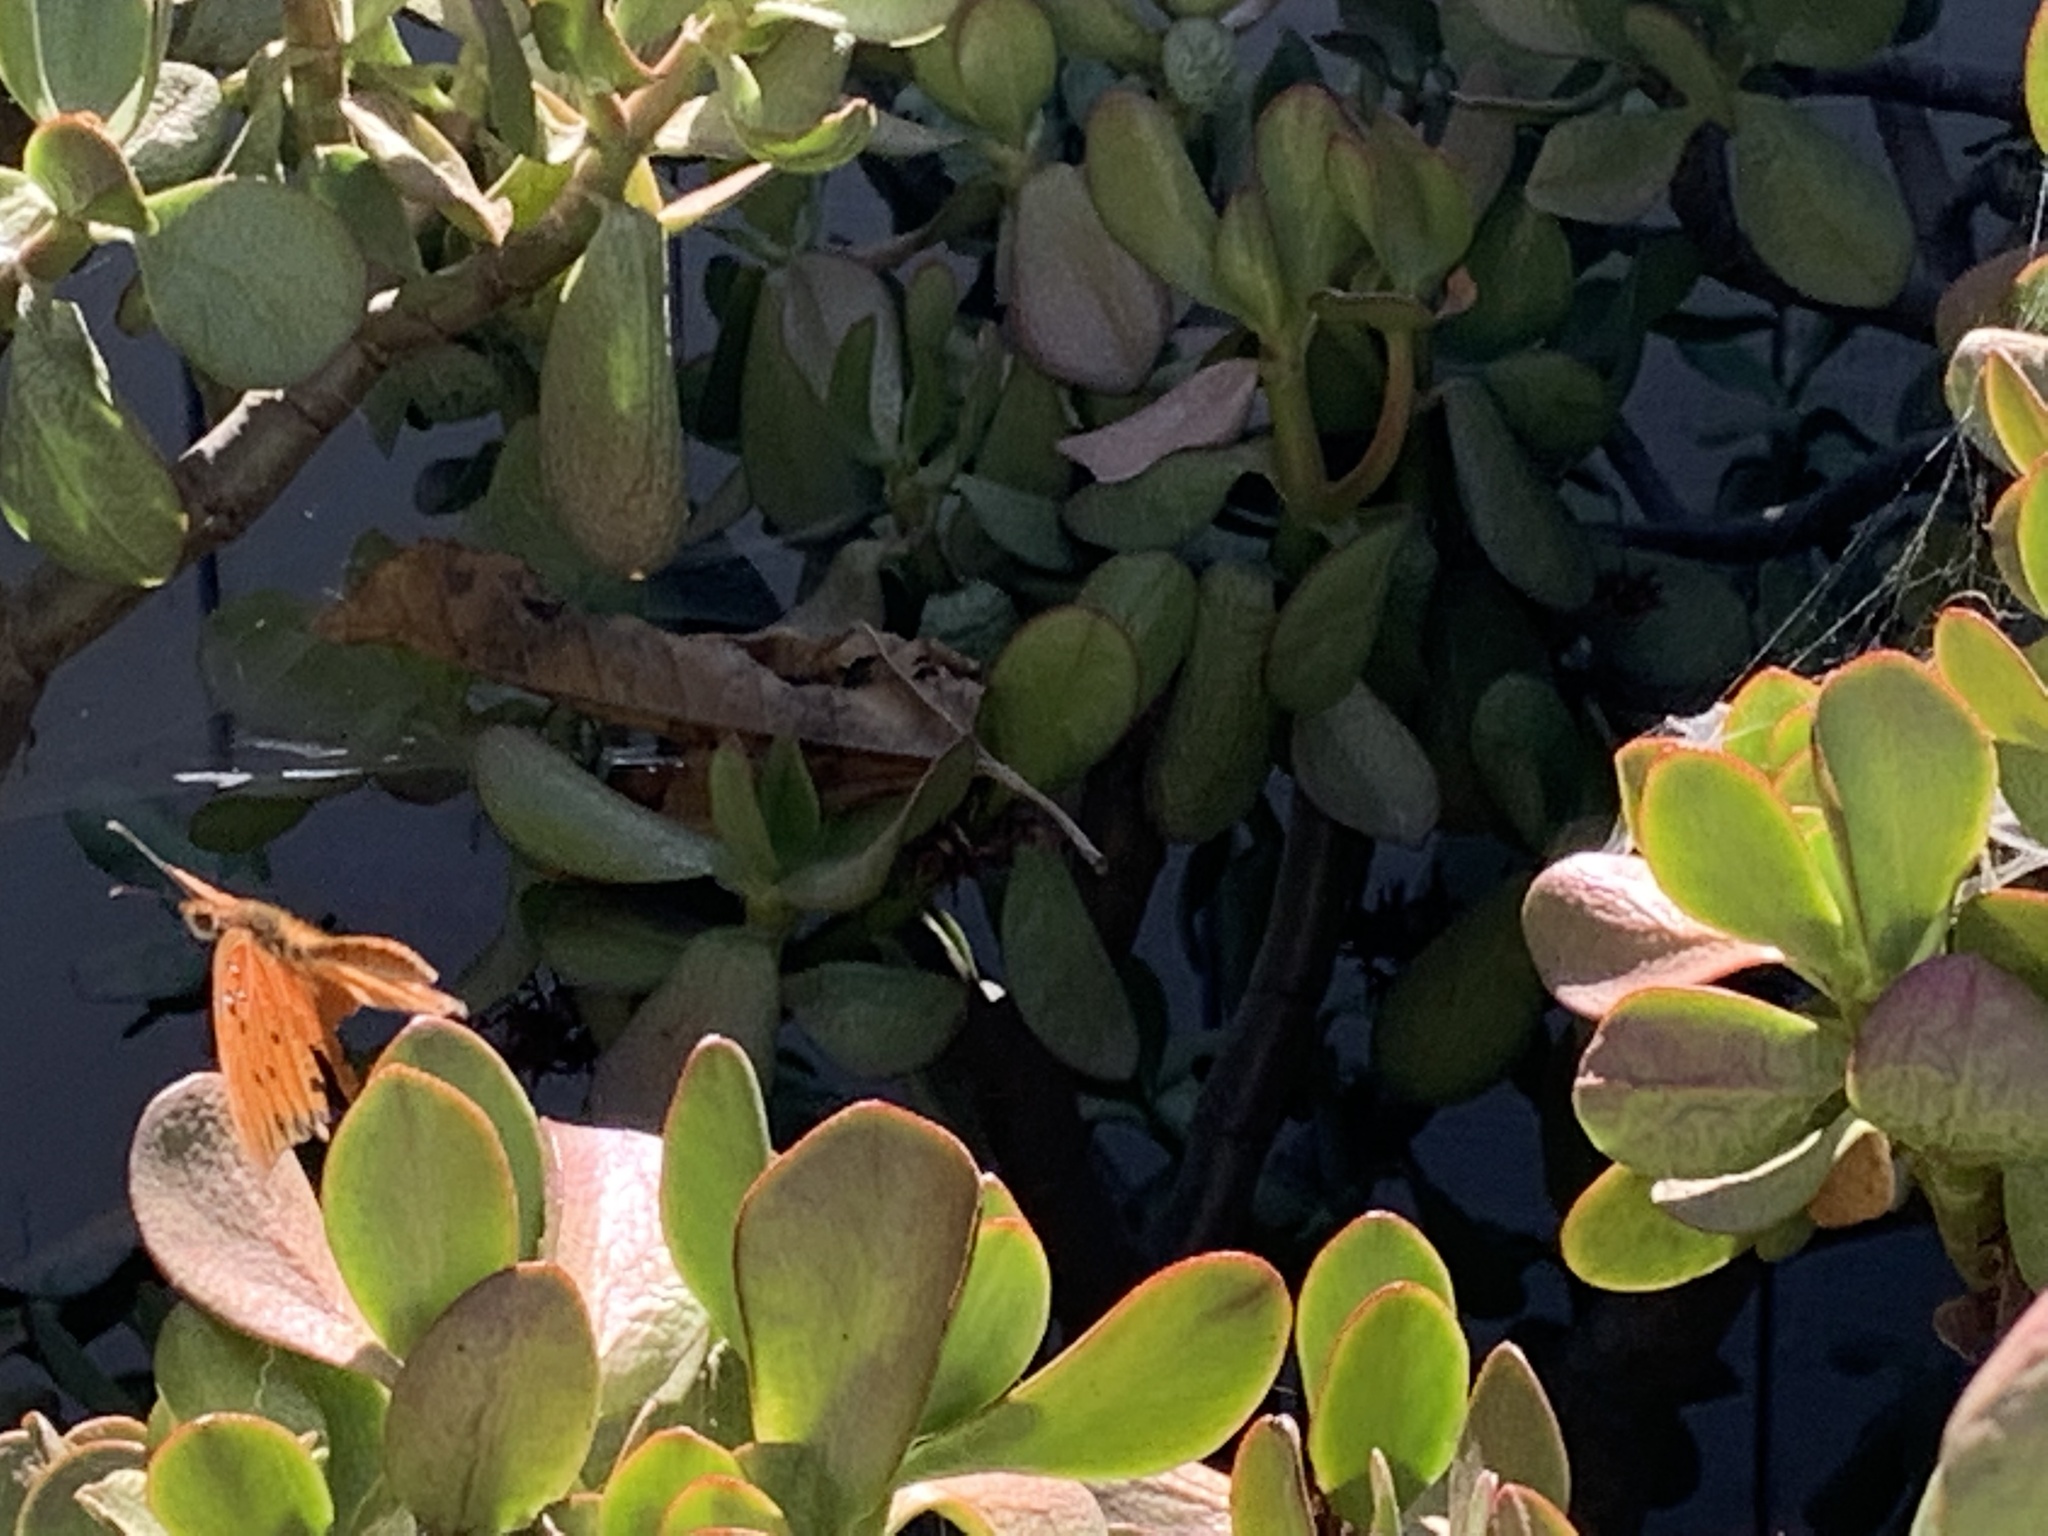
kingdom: Animalia
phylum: Arthropoda
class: Insecta
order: Lepidoptera
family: Nymphalidae
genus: Dione
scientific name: Dione vanillae
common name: Gulf fritillary
